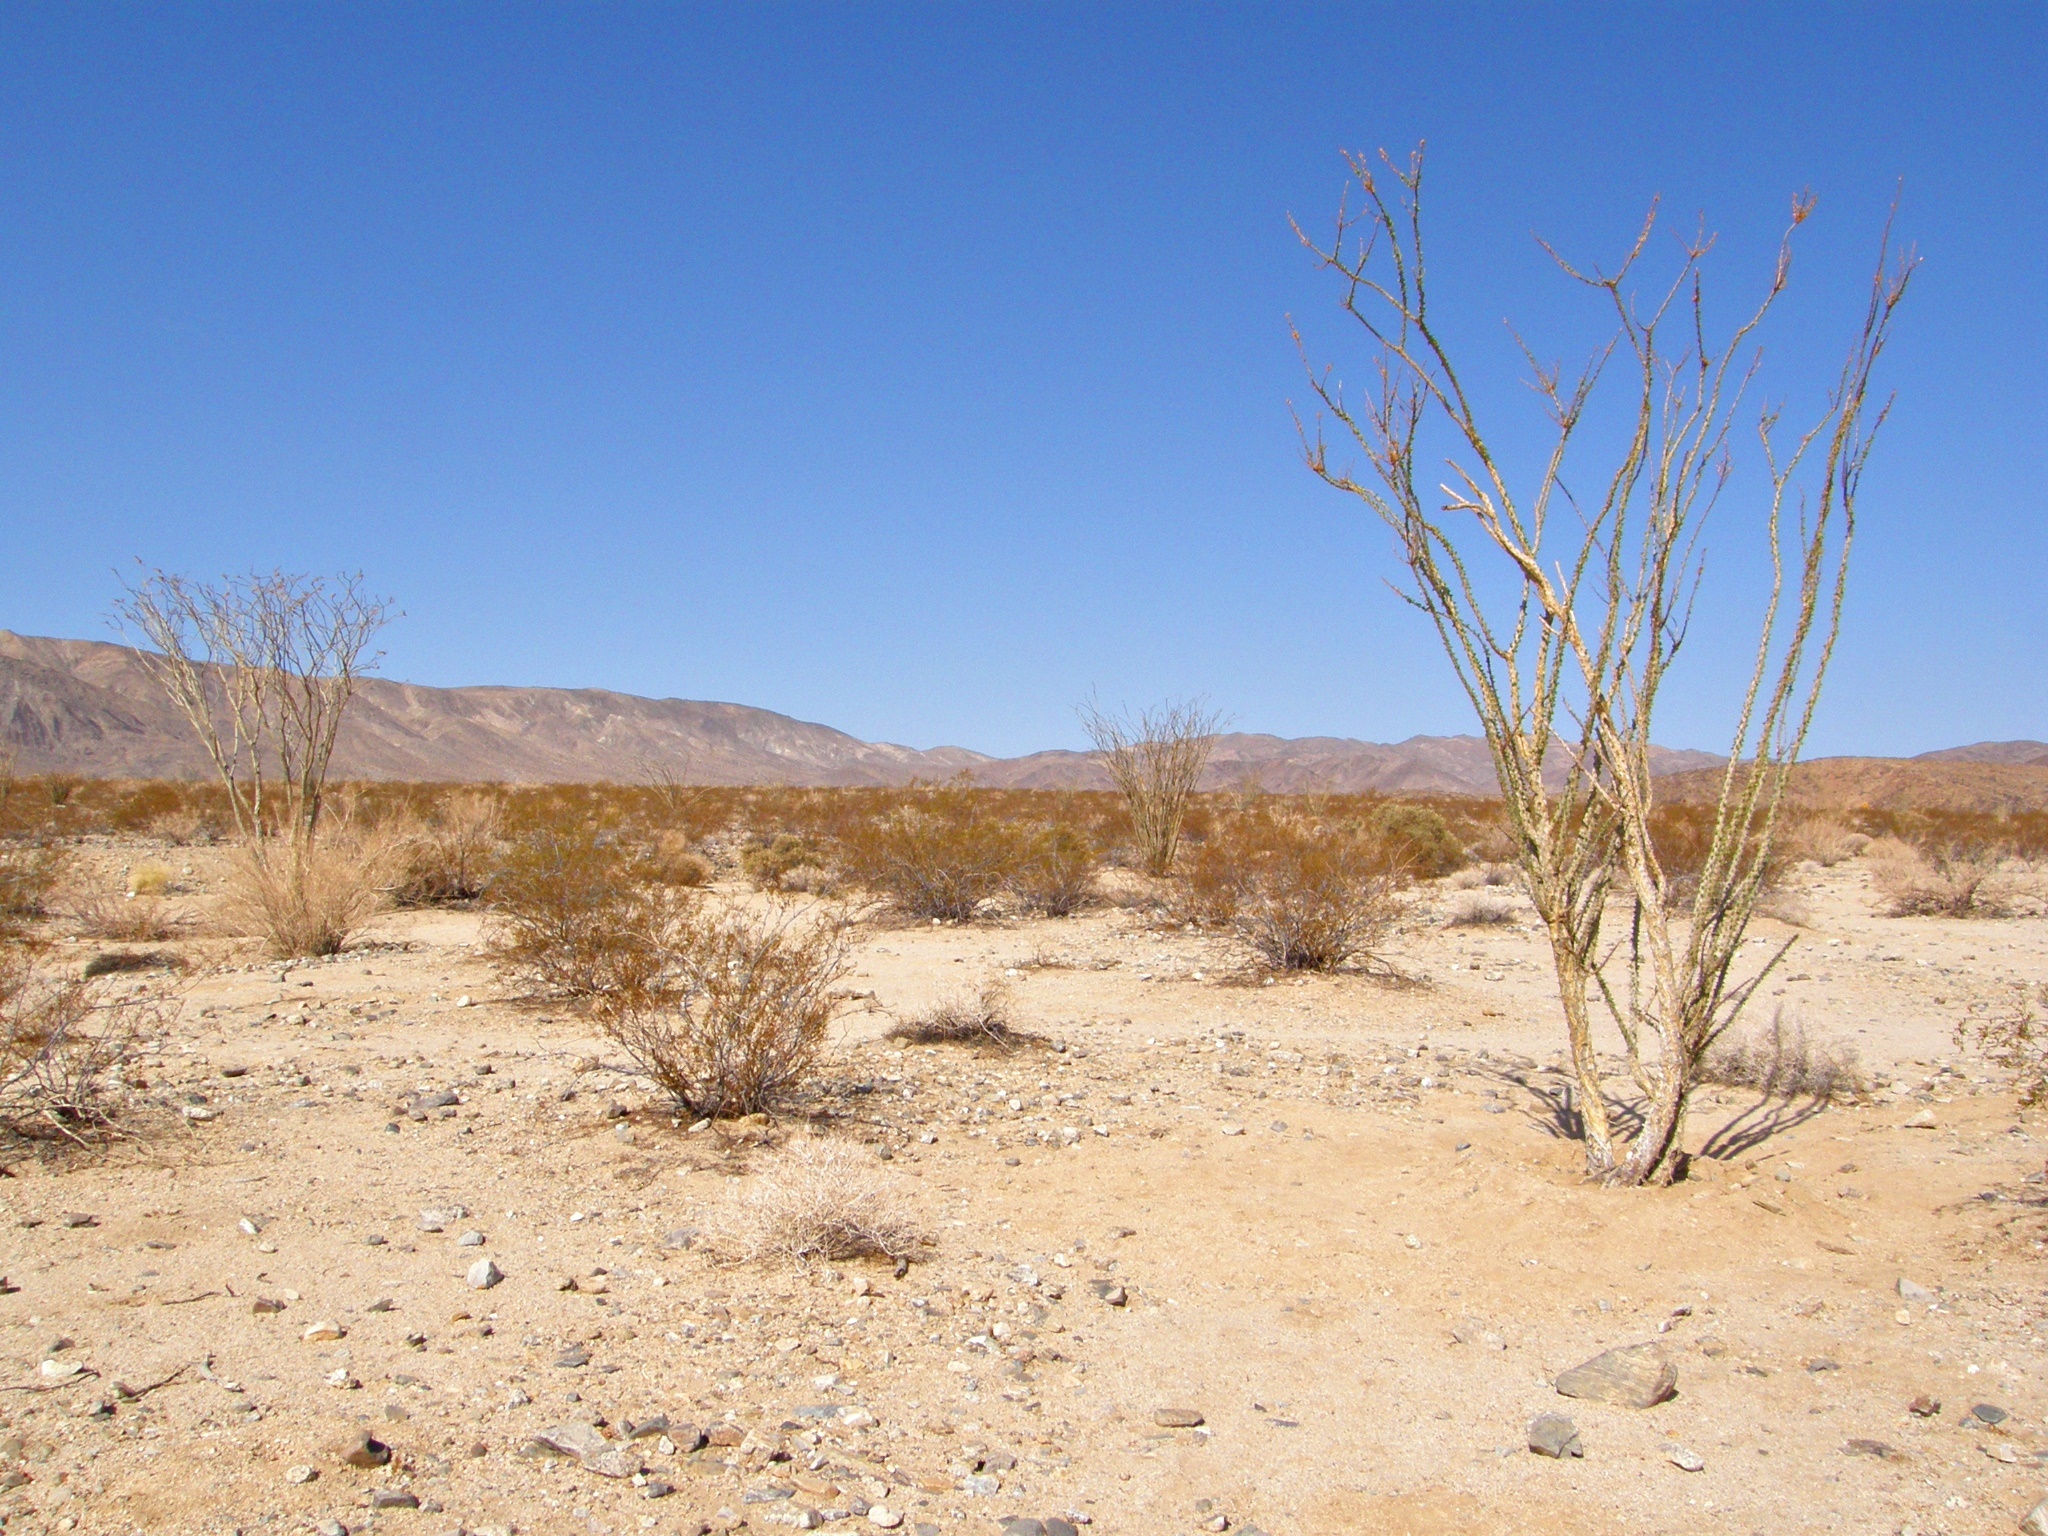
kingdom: Plantae
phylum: Tracheophyta
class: Magnoliopsida
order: Ericales
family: Fouquieriaceae
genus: Fouquieria
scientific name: Fouquieria splendens
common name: Vine-cactus
